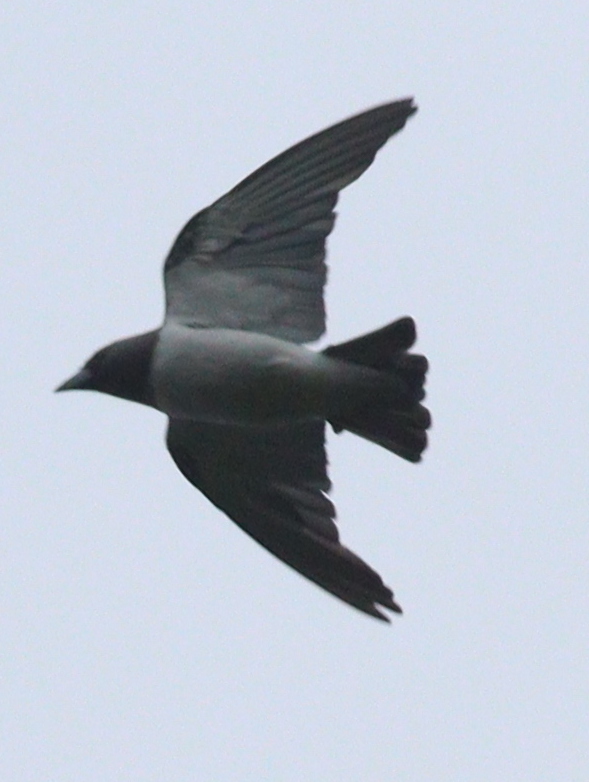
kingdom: Animalia
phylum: Chordata
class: Aves
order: Passeriformes
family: Artamidae
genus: Artamus
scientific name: Artamus leucoryn
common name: White-breasted woodswallow
